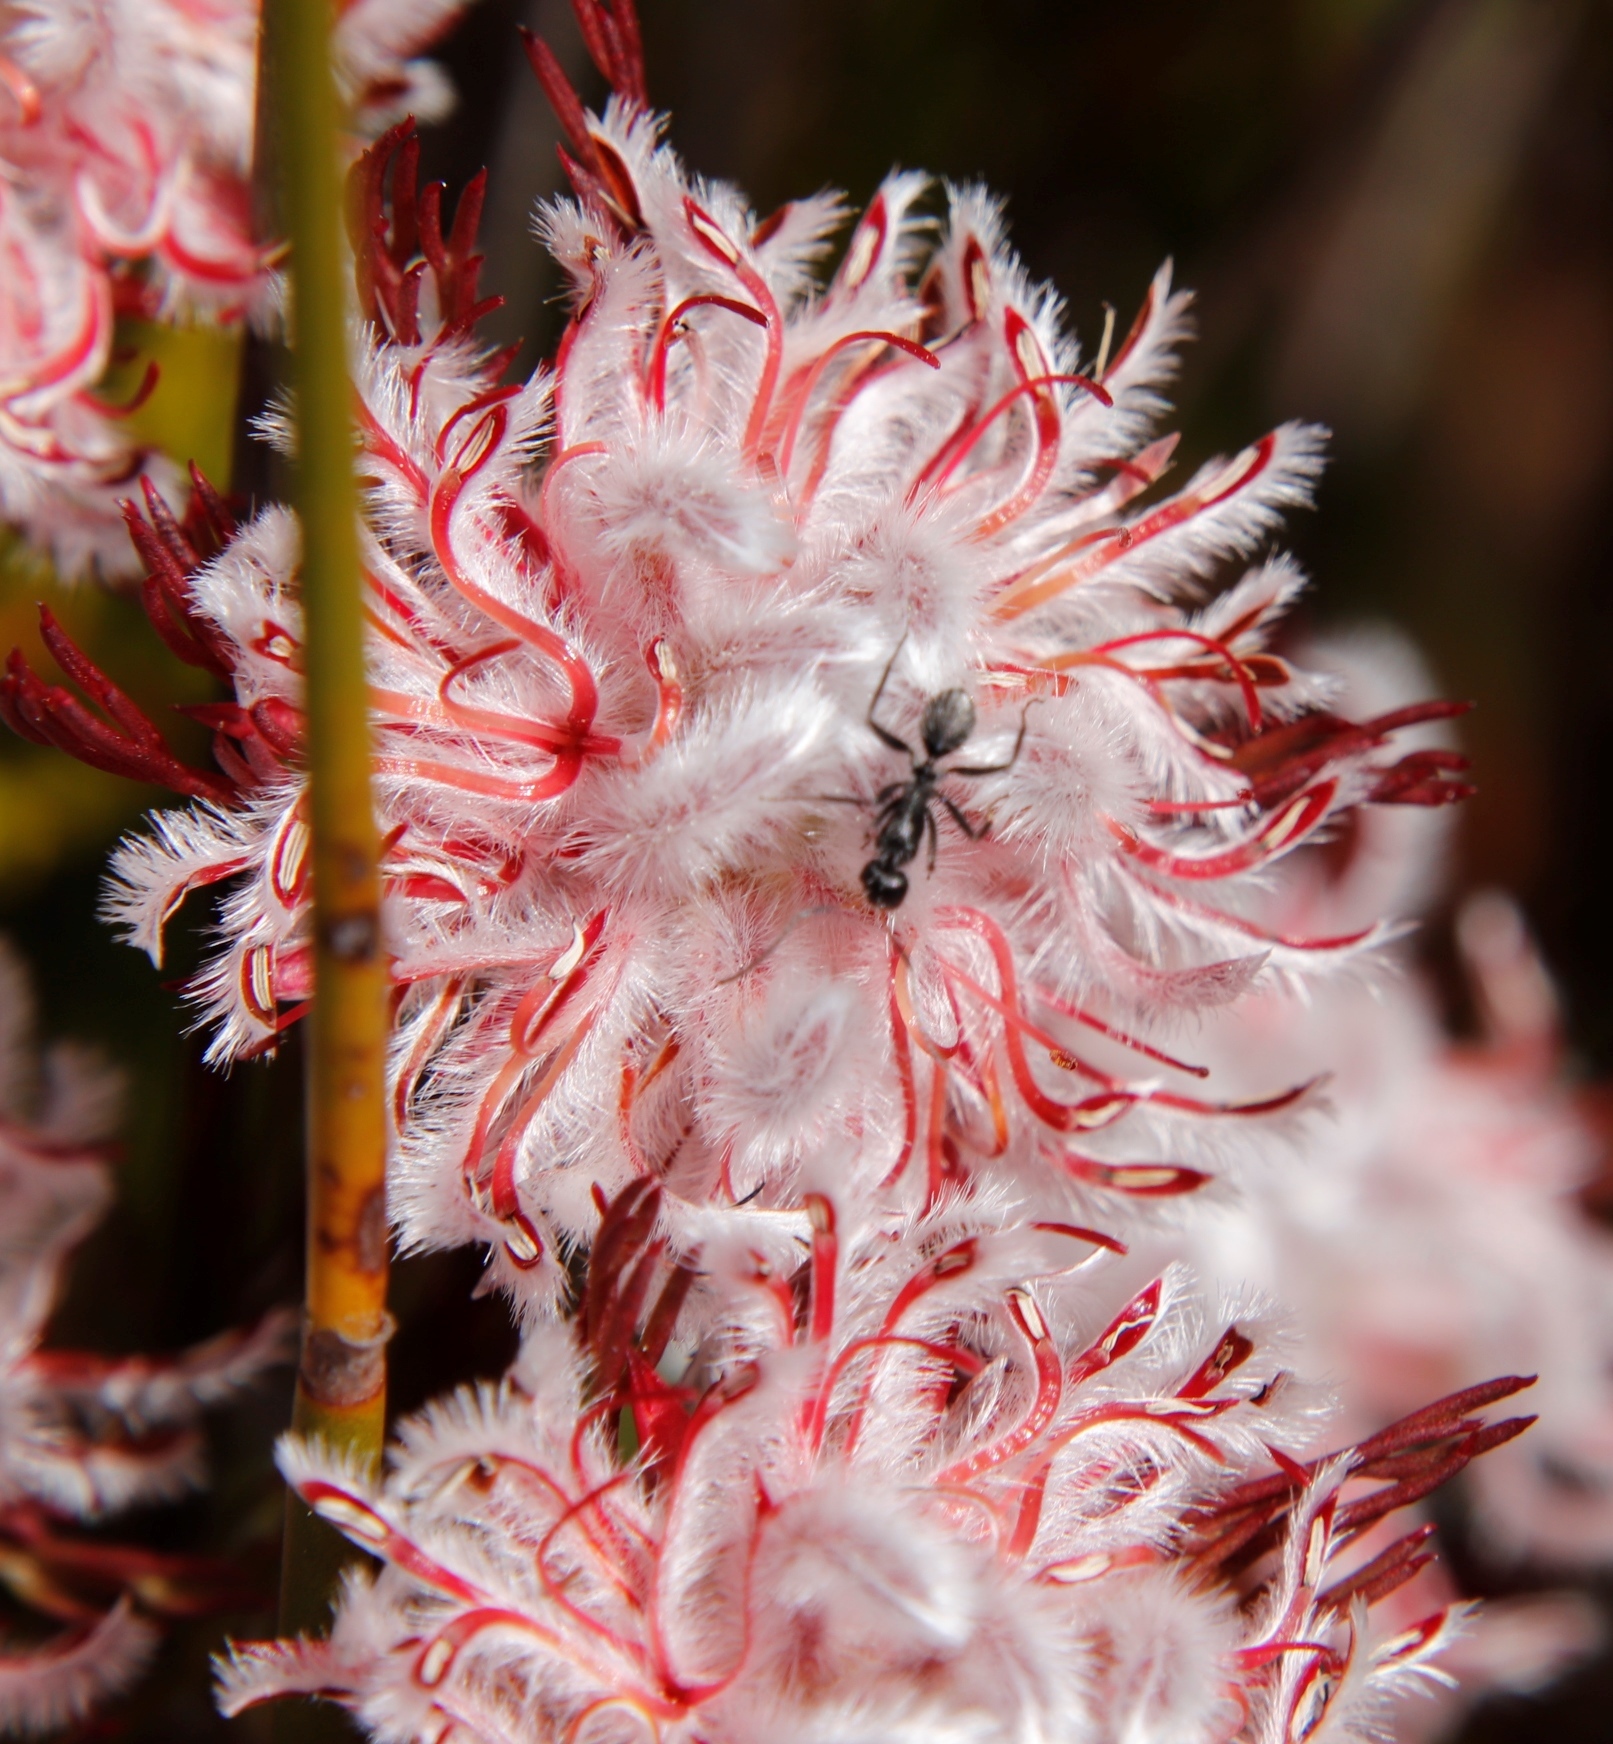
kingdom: Animalia
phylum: Arthropoda
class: Insecta
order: Hymenoptera
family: Formicidae
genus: Camponotus
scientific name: Camponotus niveosetosus
